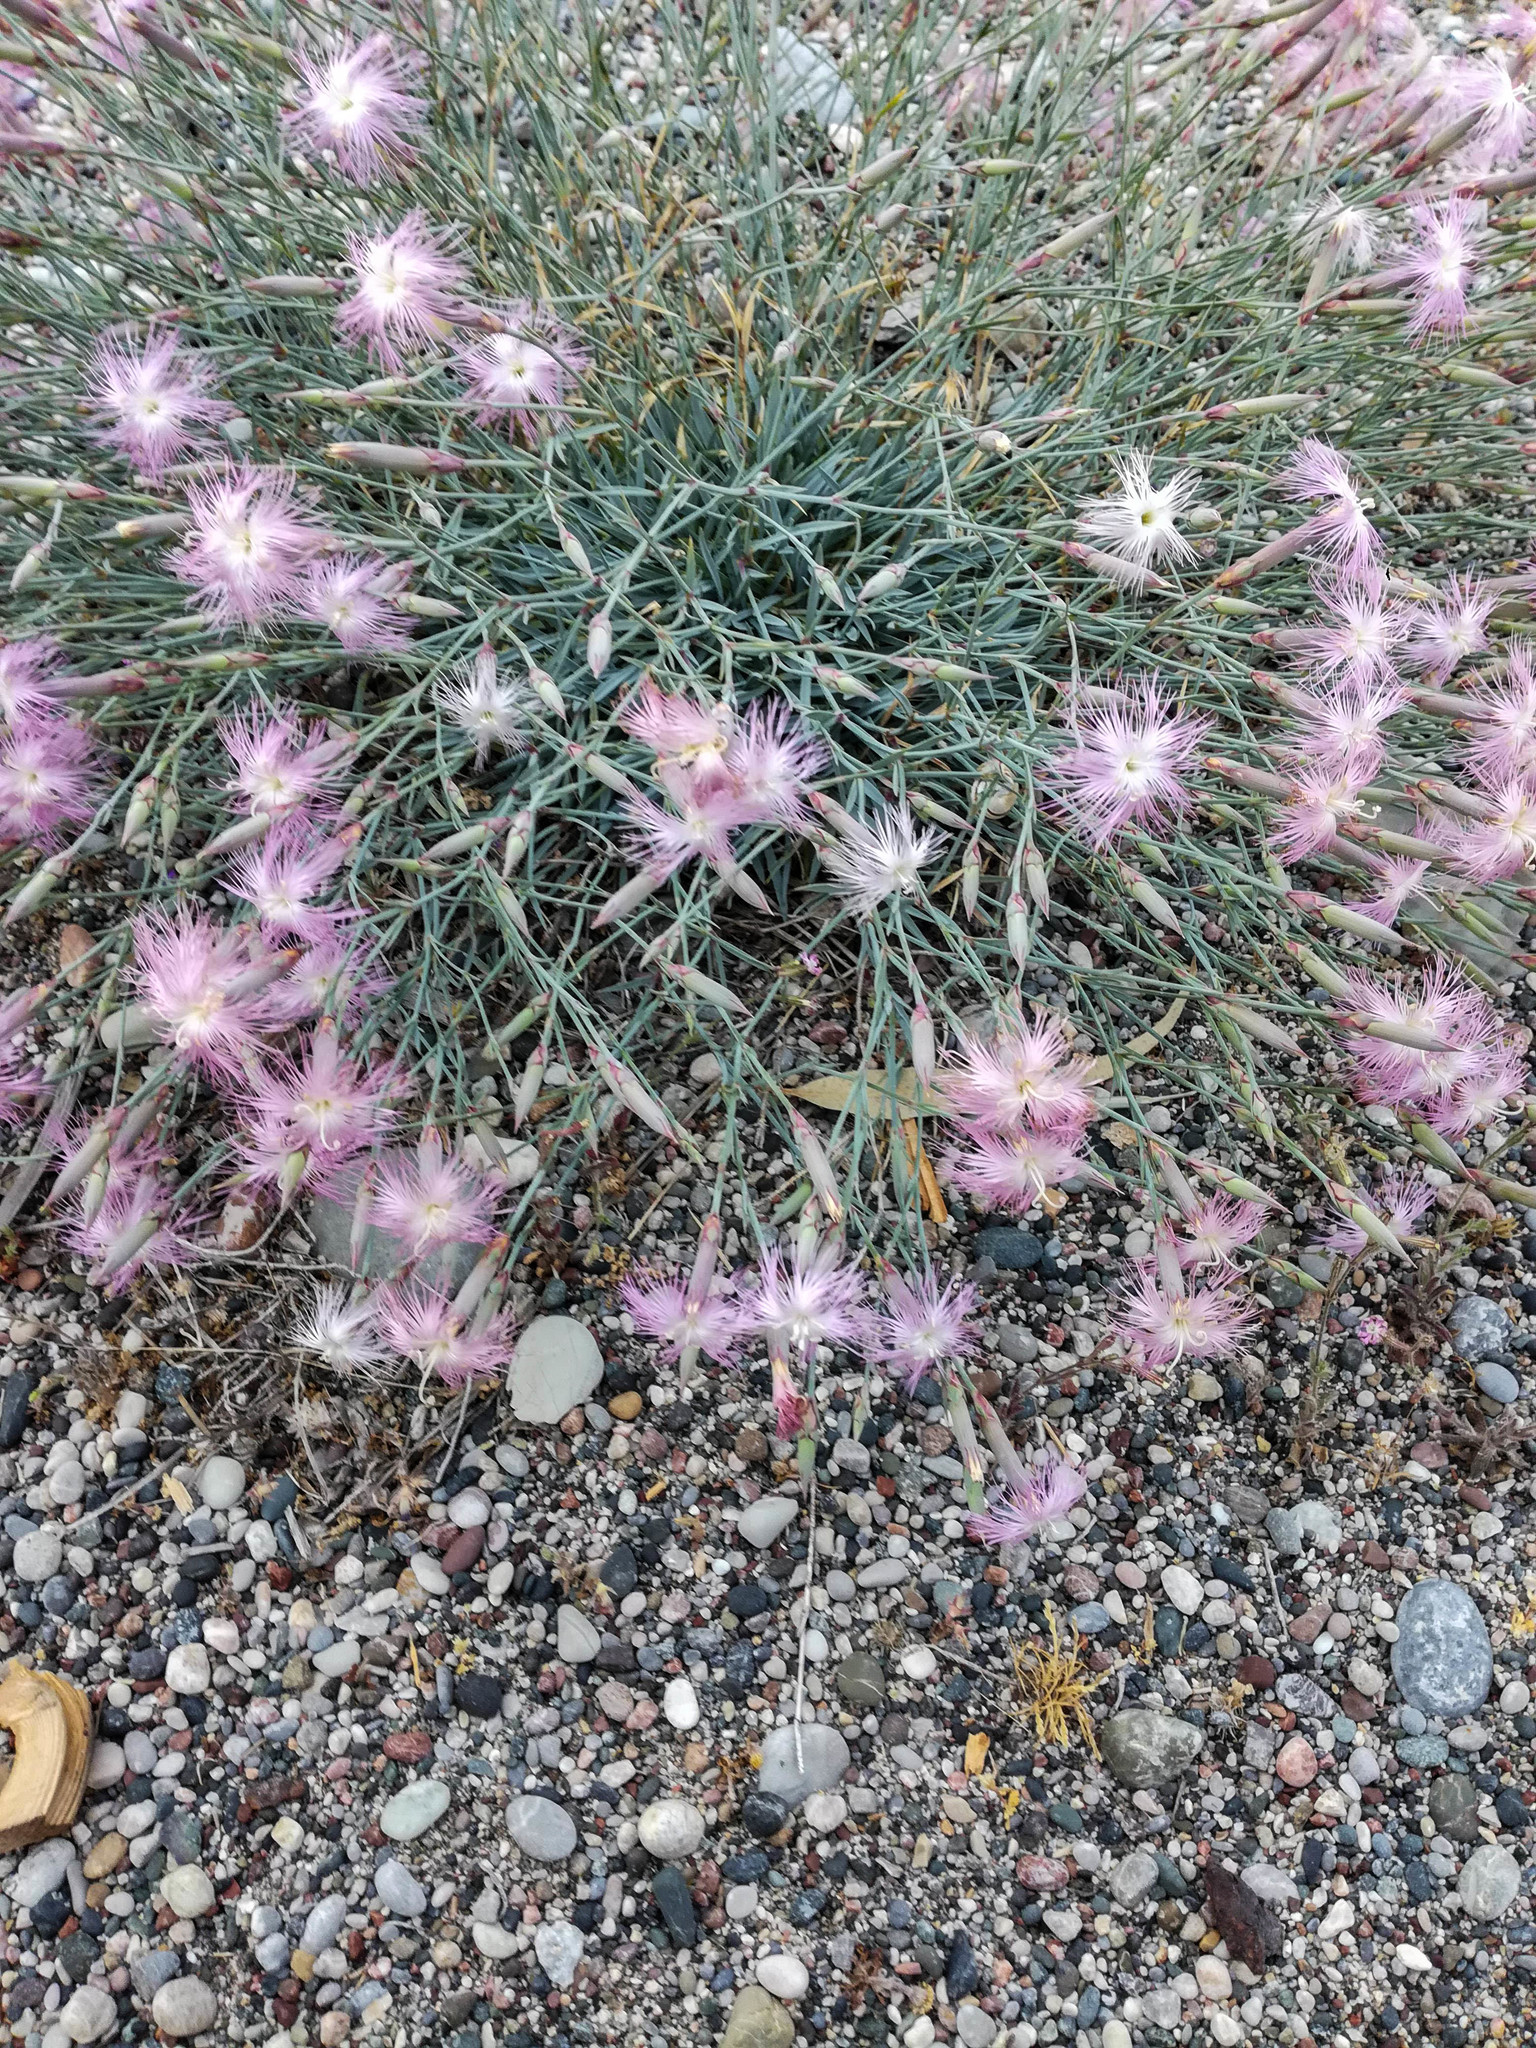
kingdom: Plantae
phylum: Tracheophyta
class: Magnoliopsida
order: Caryophyllales
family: Caryophyllaceae
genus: Dianthus
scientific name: Dianthus crinitus
